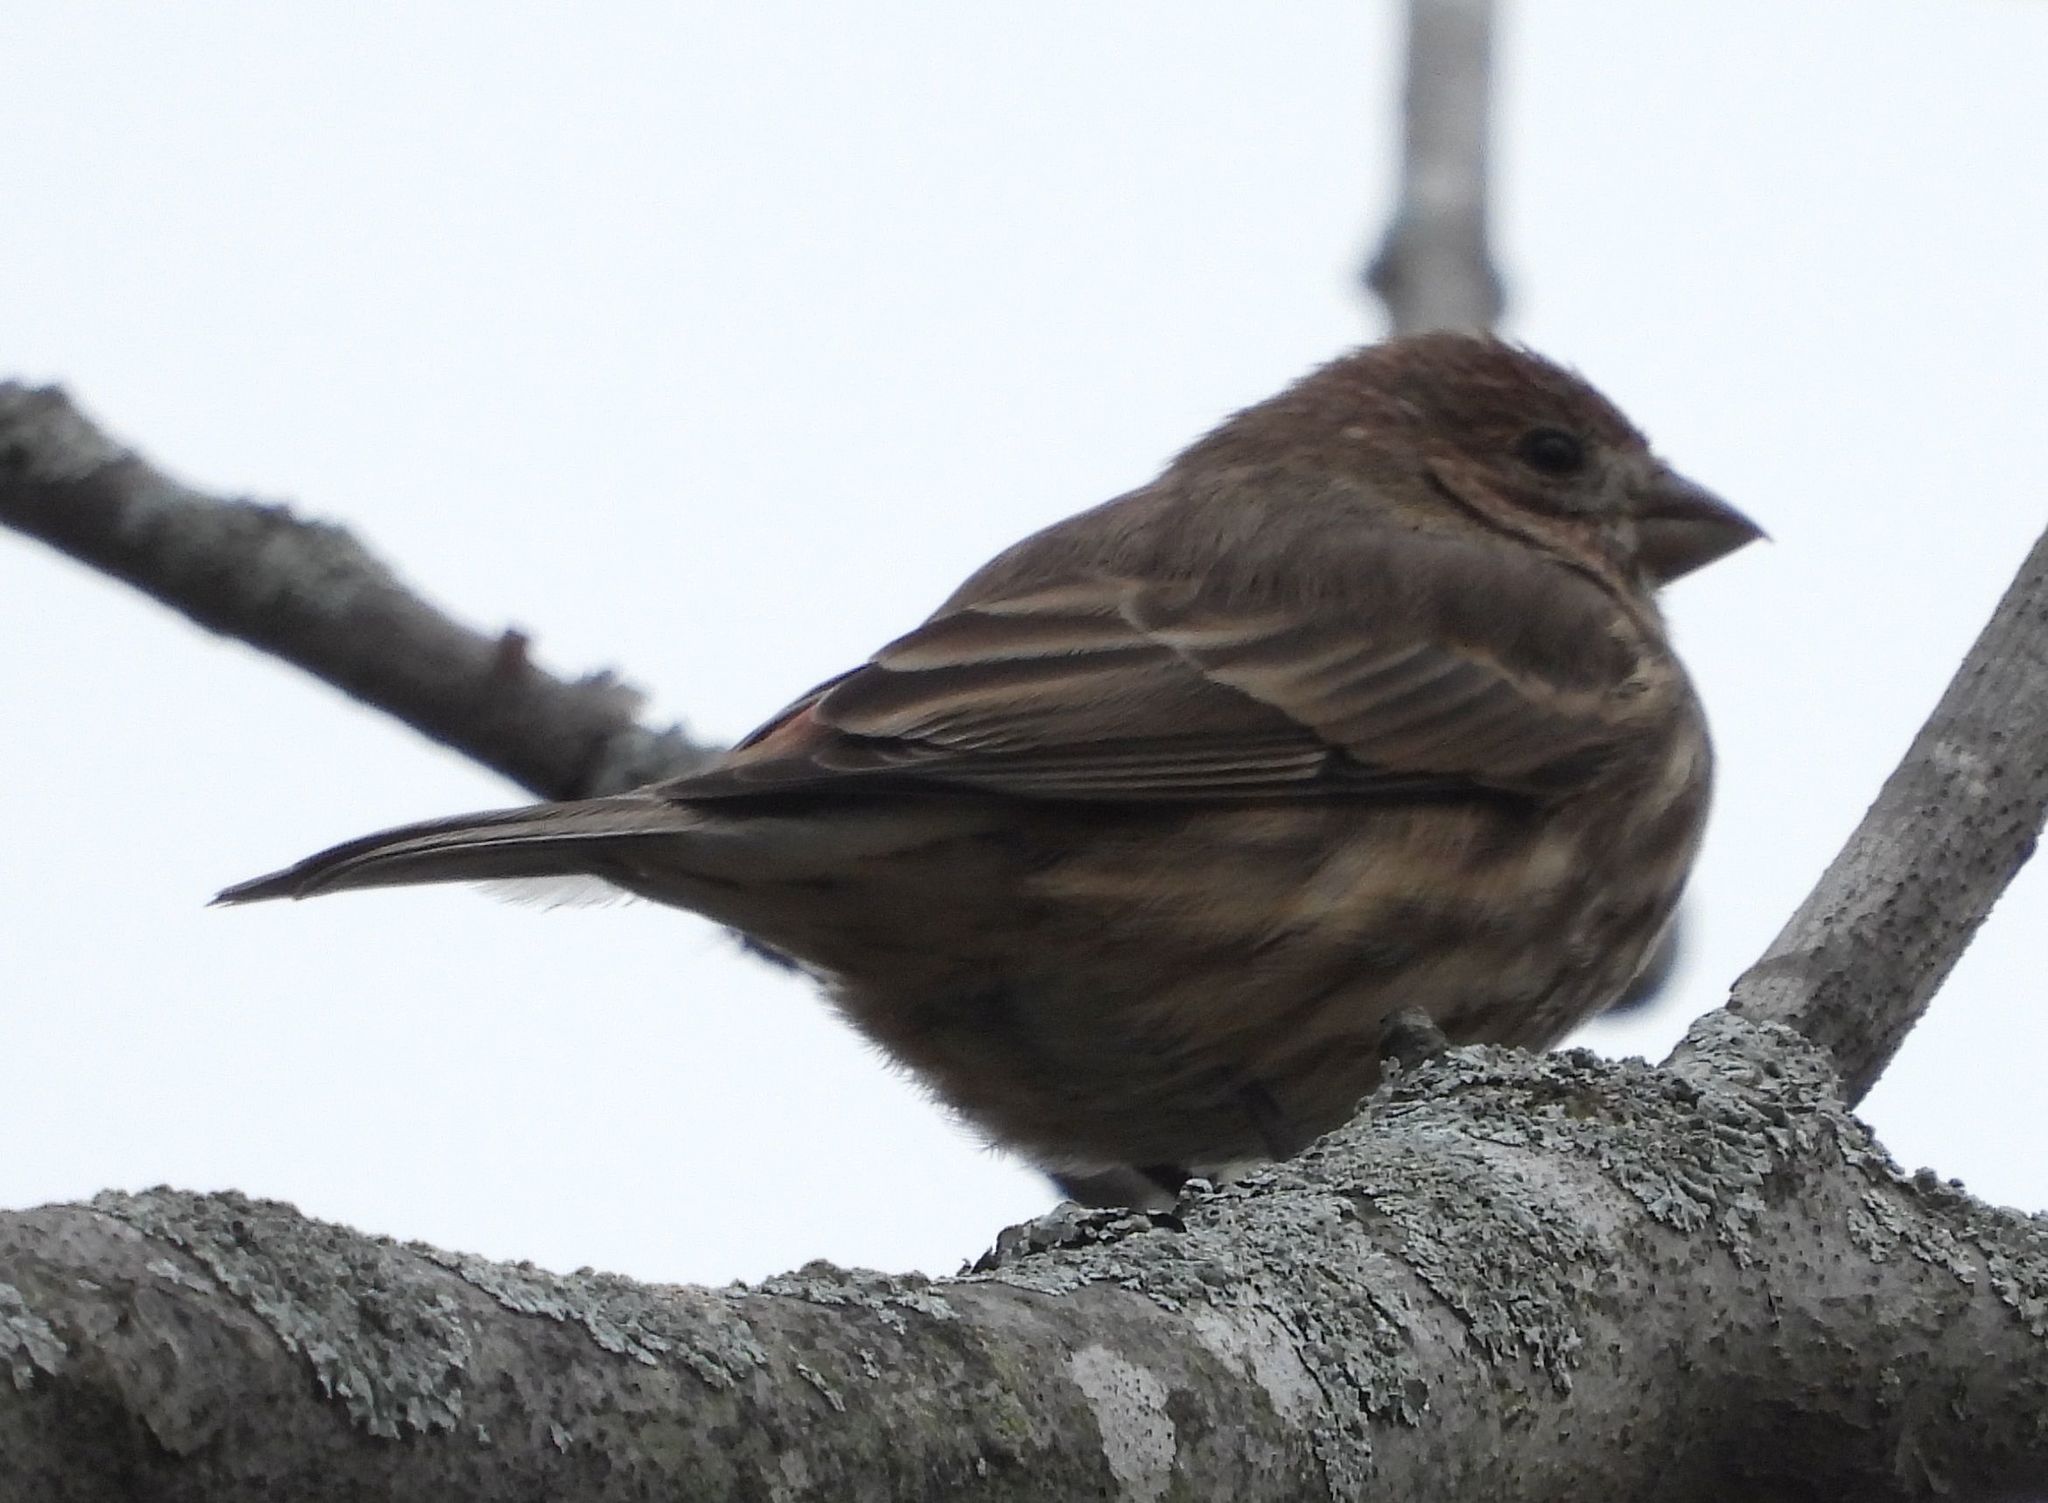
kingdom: Animalia
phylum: Chordata
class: Aves
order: Passeriformes
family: Fringillidae
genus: Haemorhous
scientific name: Haemorhous mexicanus
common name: House finch
